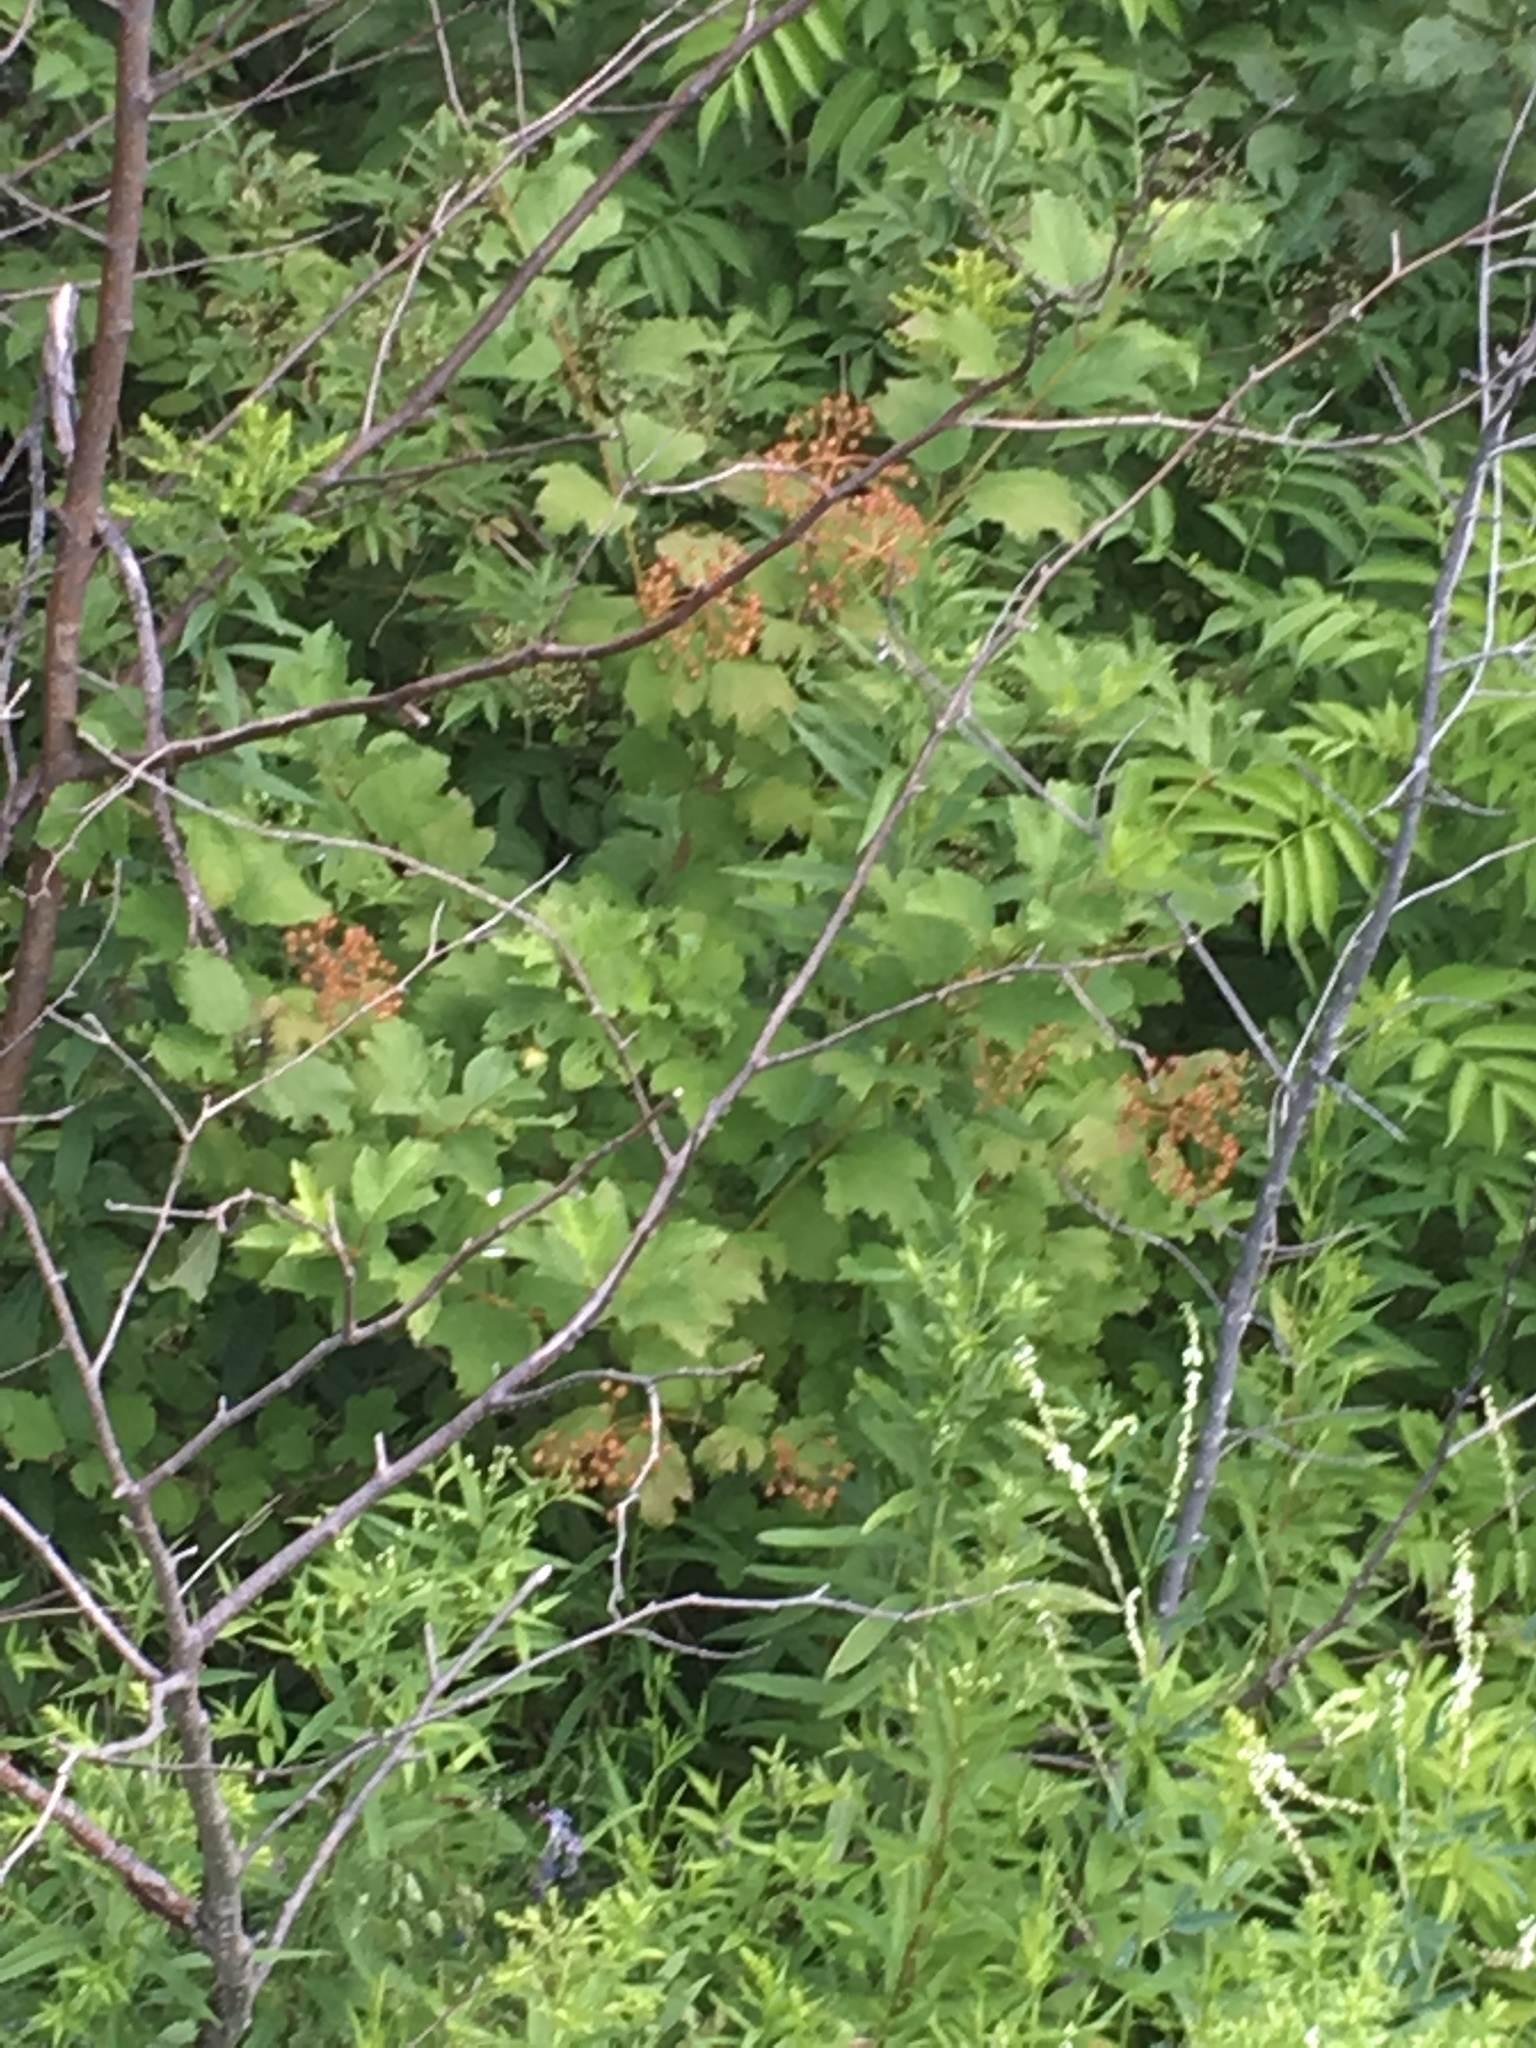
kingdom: Plantae
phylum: Tracheophyta
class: Magnoliopsida
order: Dipsacales
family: Viburnaceae
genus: Viburnum
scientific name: Viburnum opulus
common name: Guelder-rose
